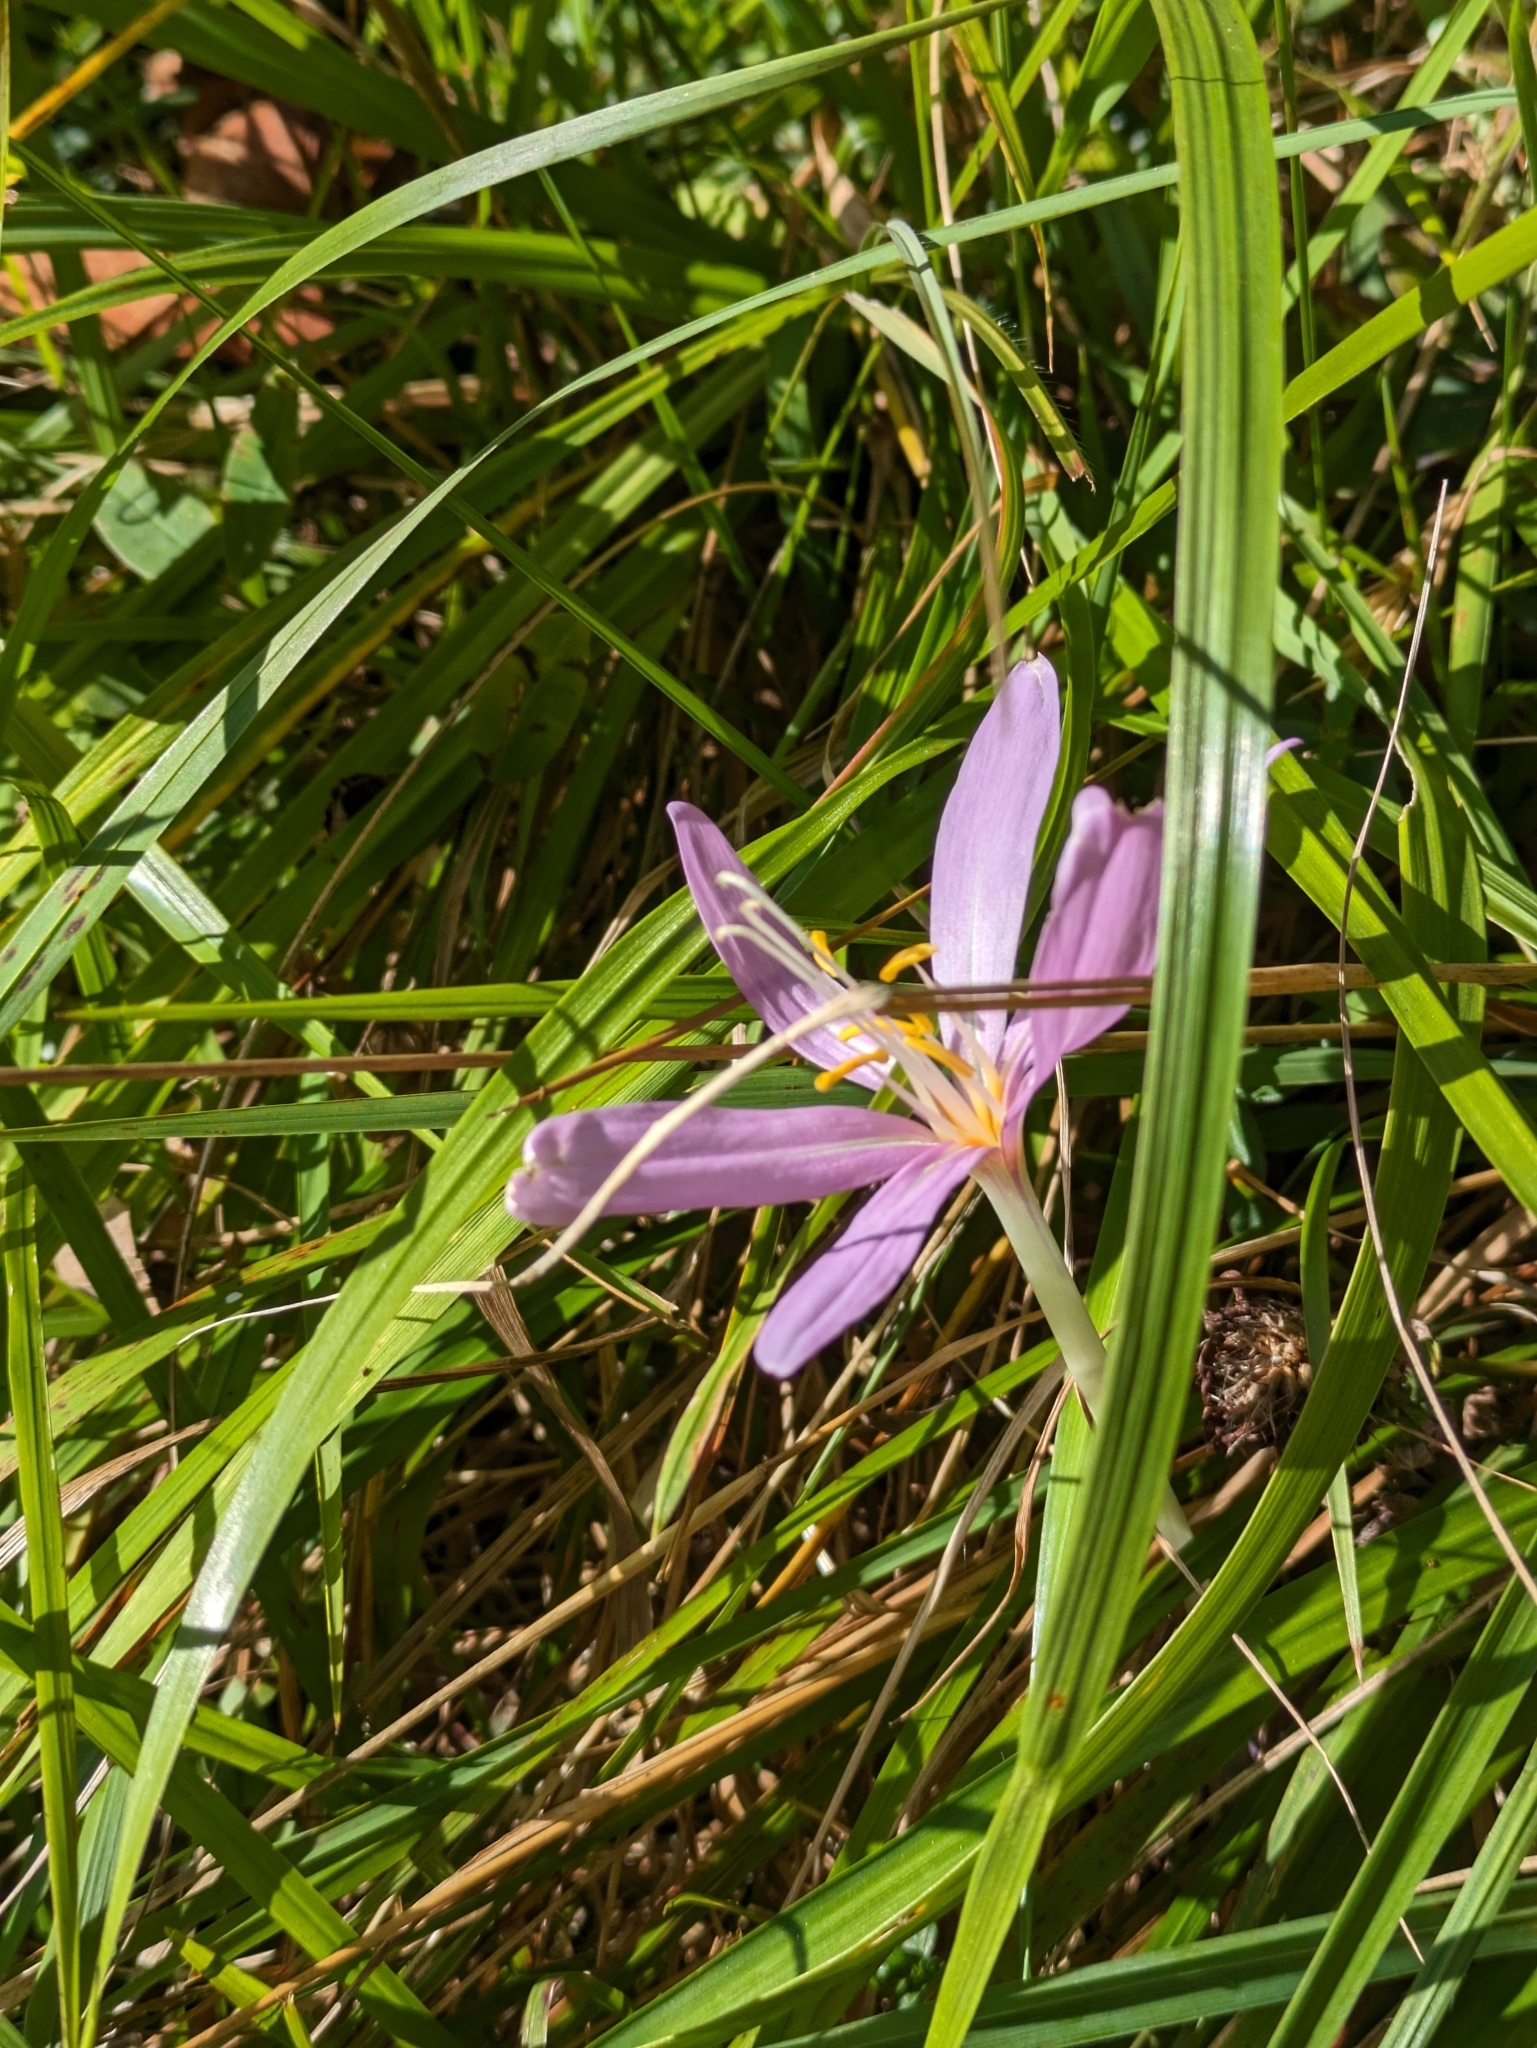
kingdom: Plantae
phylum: Tracheophyta
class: Liliopsida
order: Liliales
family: Colchicaceae
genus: Colchicum
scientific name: Colchicum autumnale
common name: Autumn crocus
